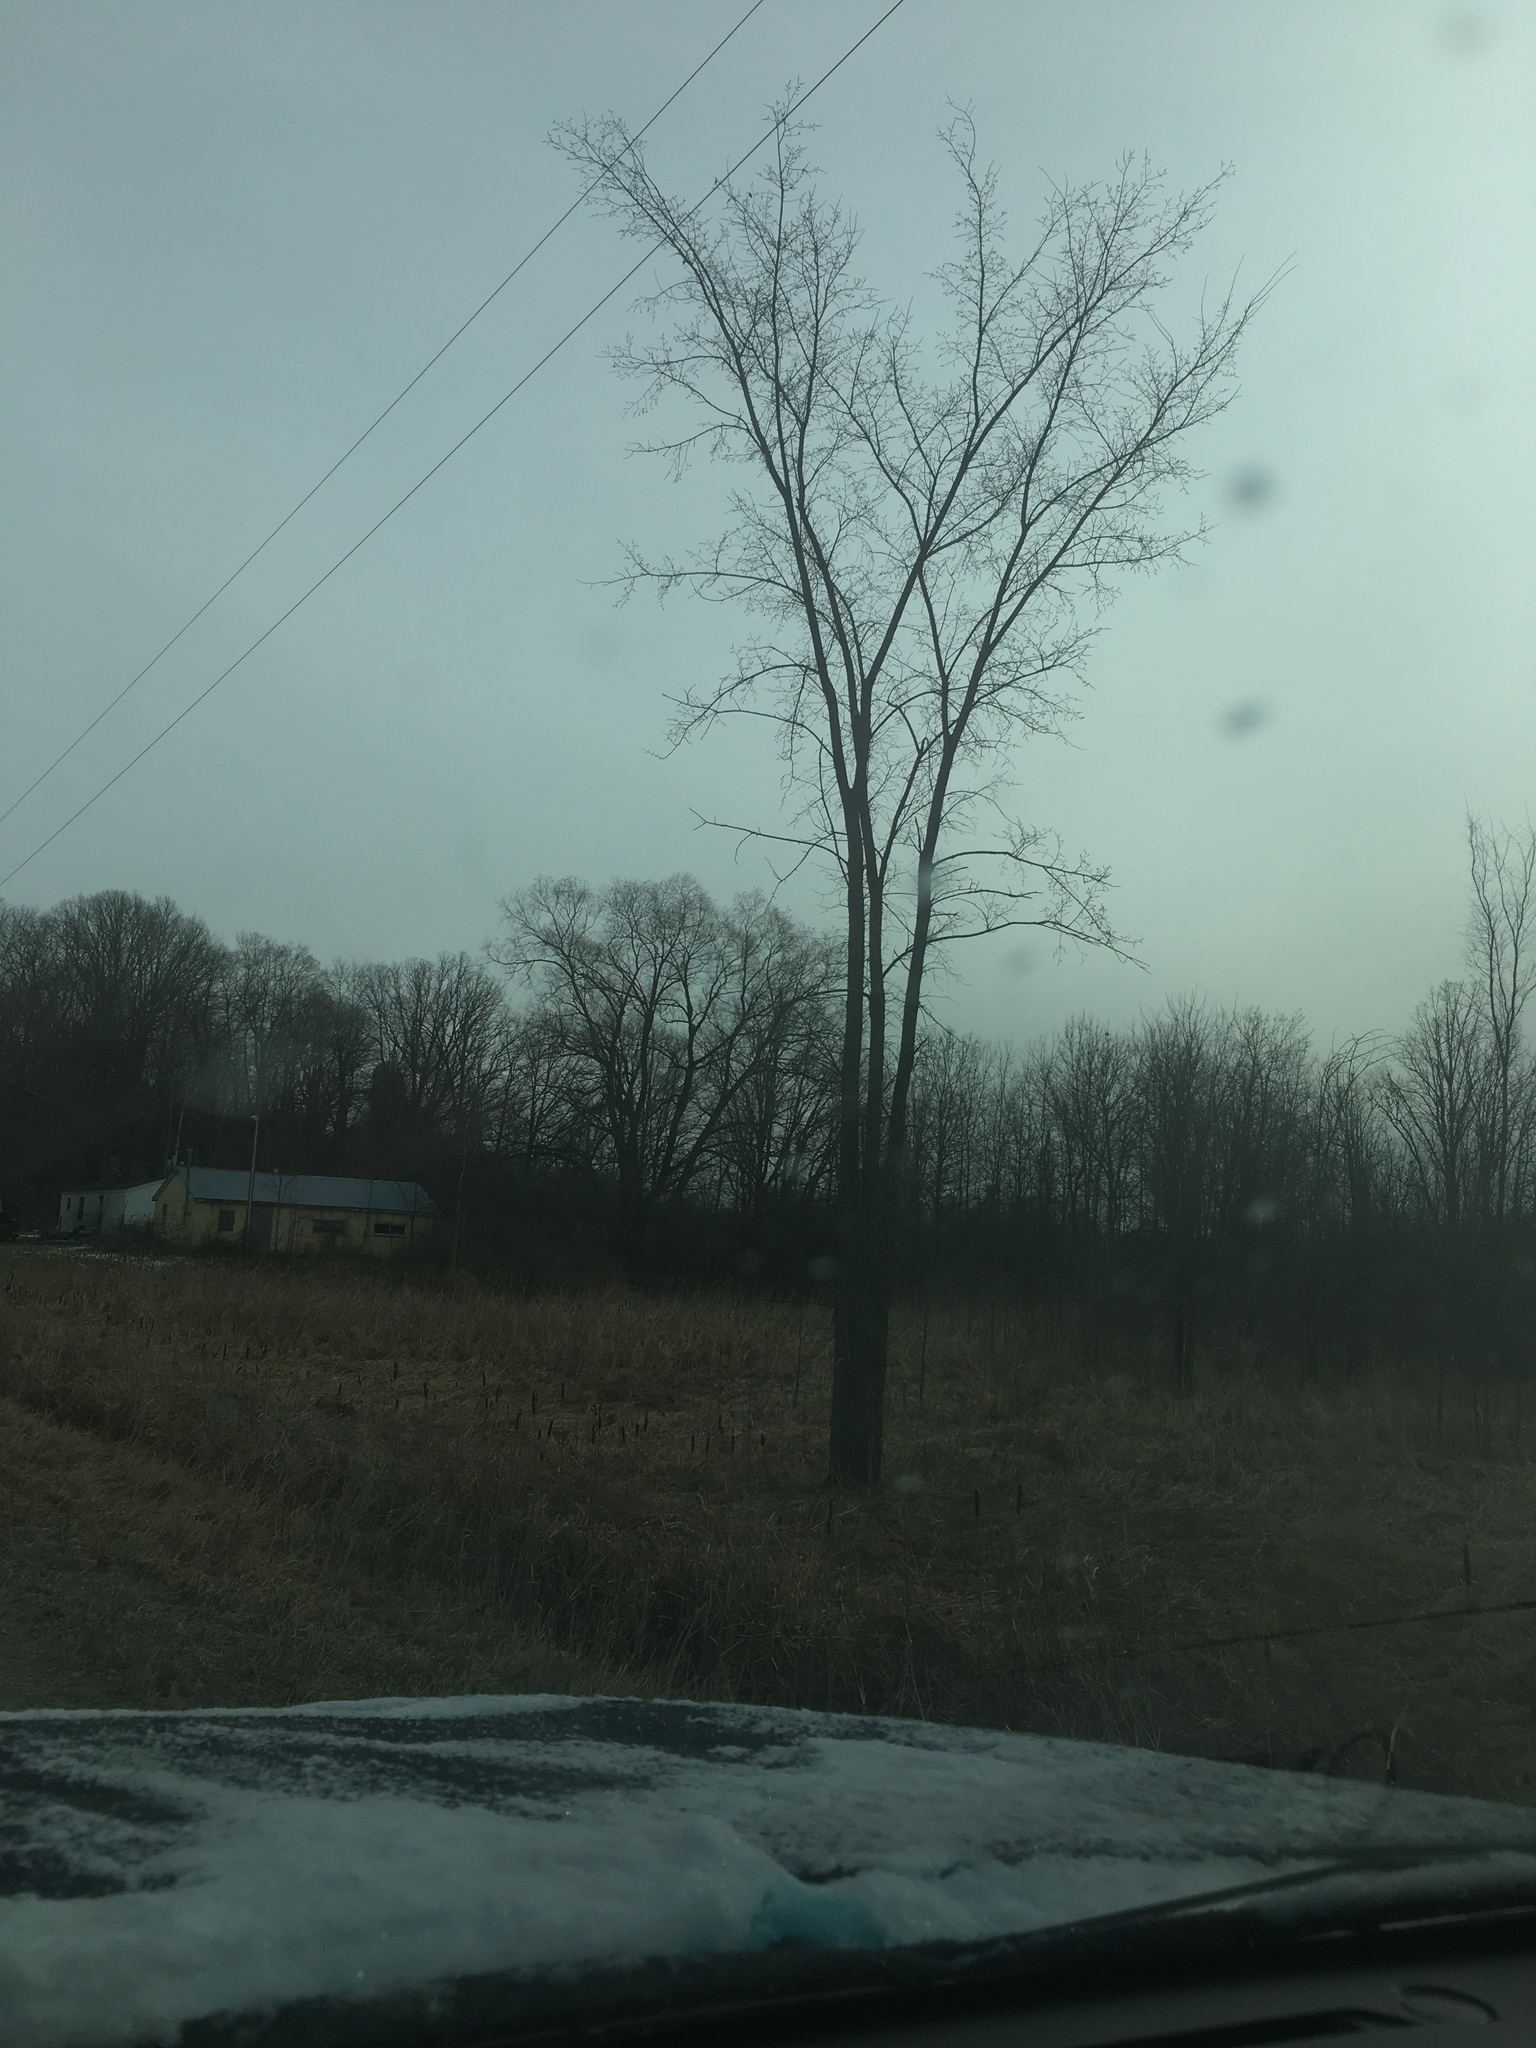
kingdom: Plantae
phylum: Tracheophyta
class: Magnoliopsida
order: Rosales
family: Ulmaceae
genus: Ulmus
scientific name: Ulmus americana
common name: American elm
